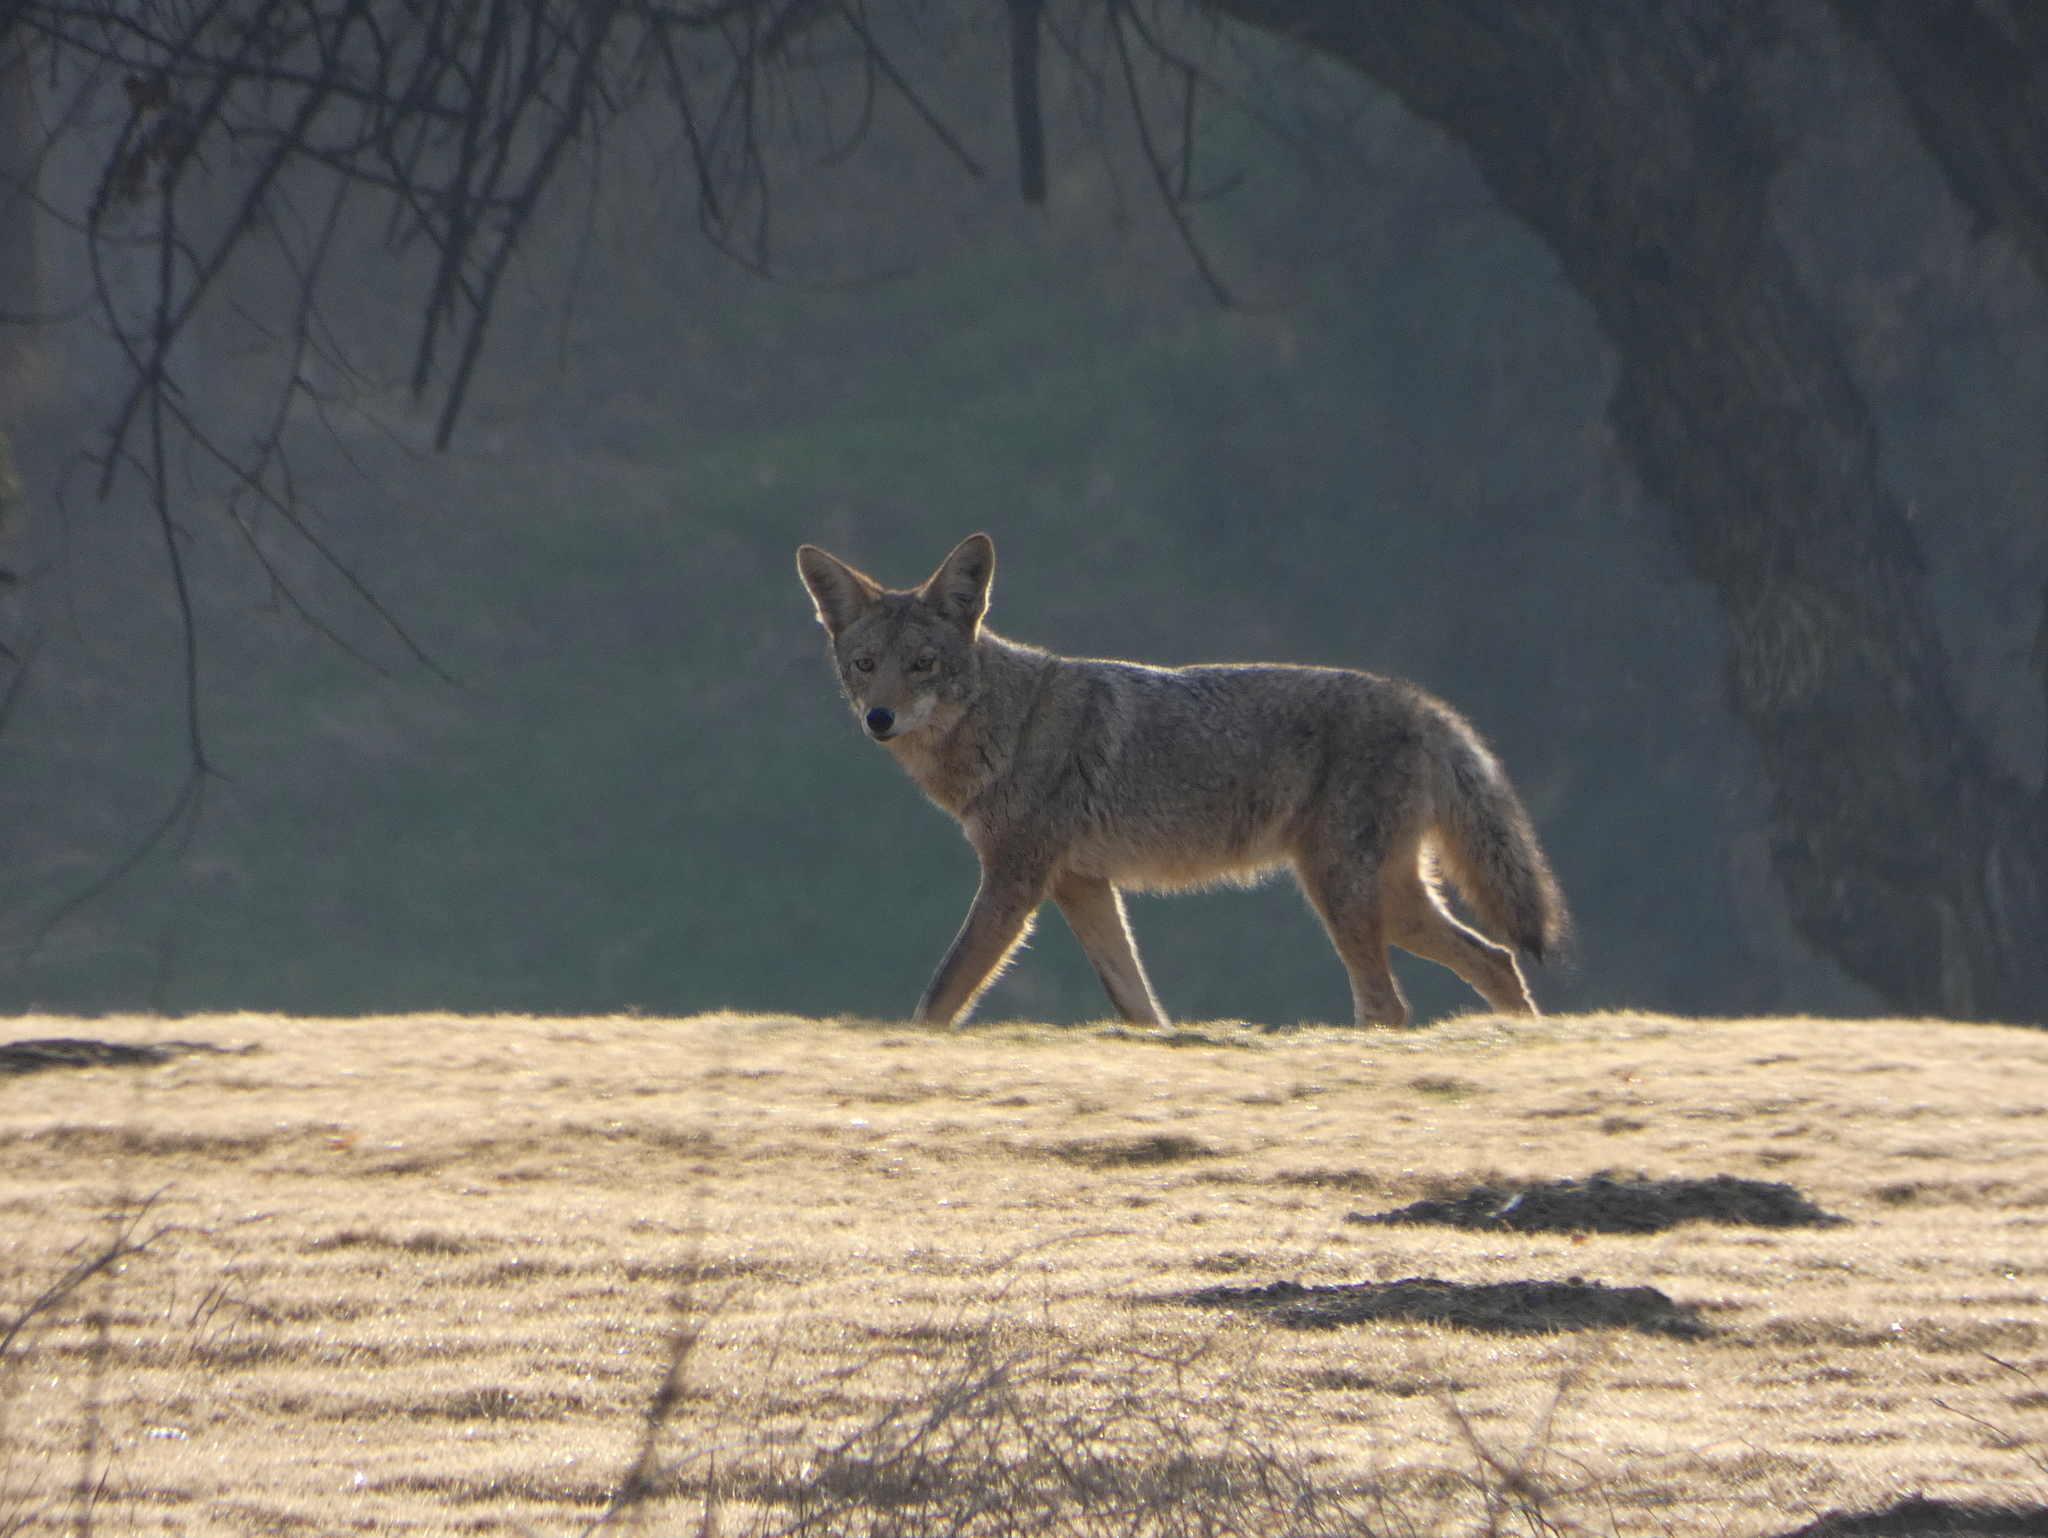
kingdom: Animalia
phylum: Chordata
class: Mammalia
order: Carnivora
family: Canidae
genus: Canis
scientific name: Canis latrans
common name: Coyote
